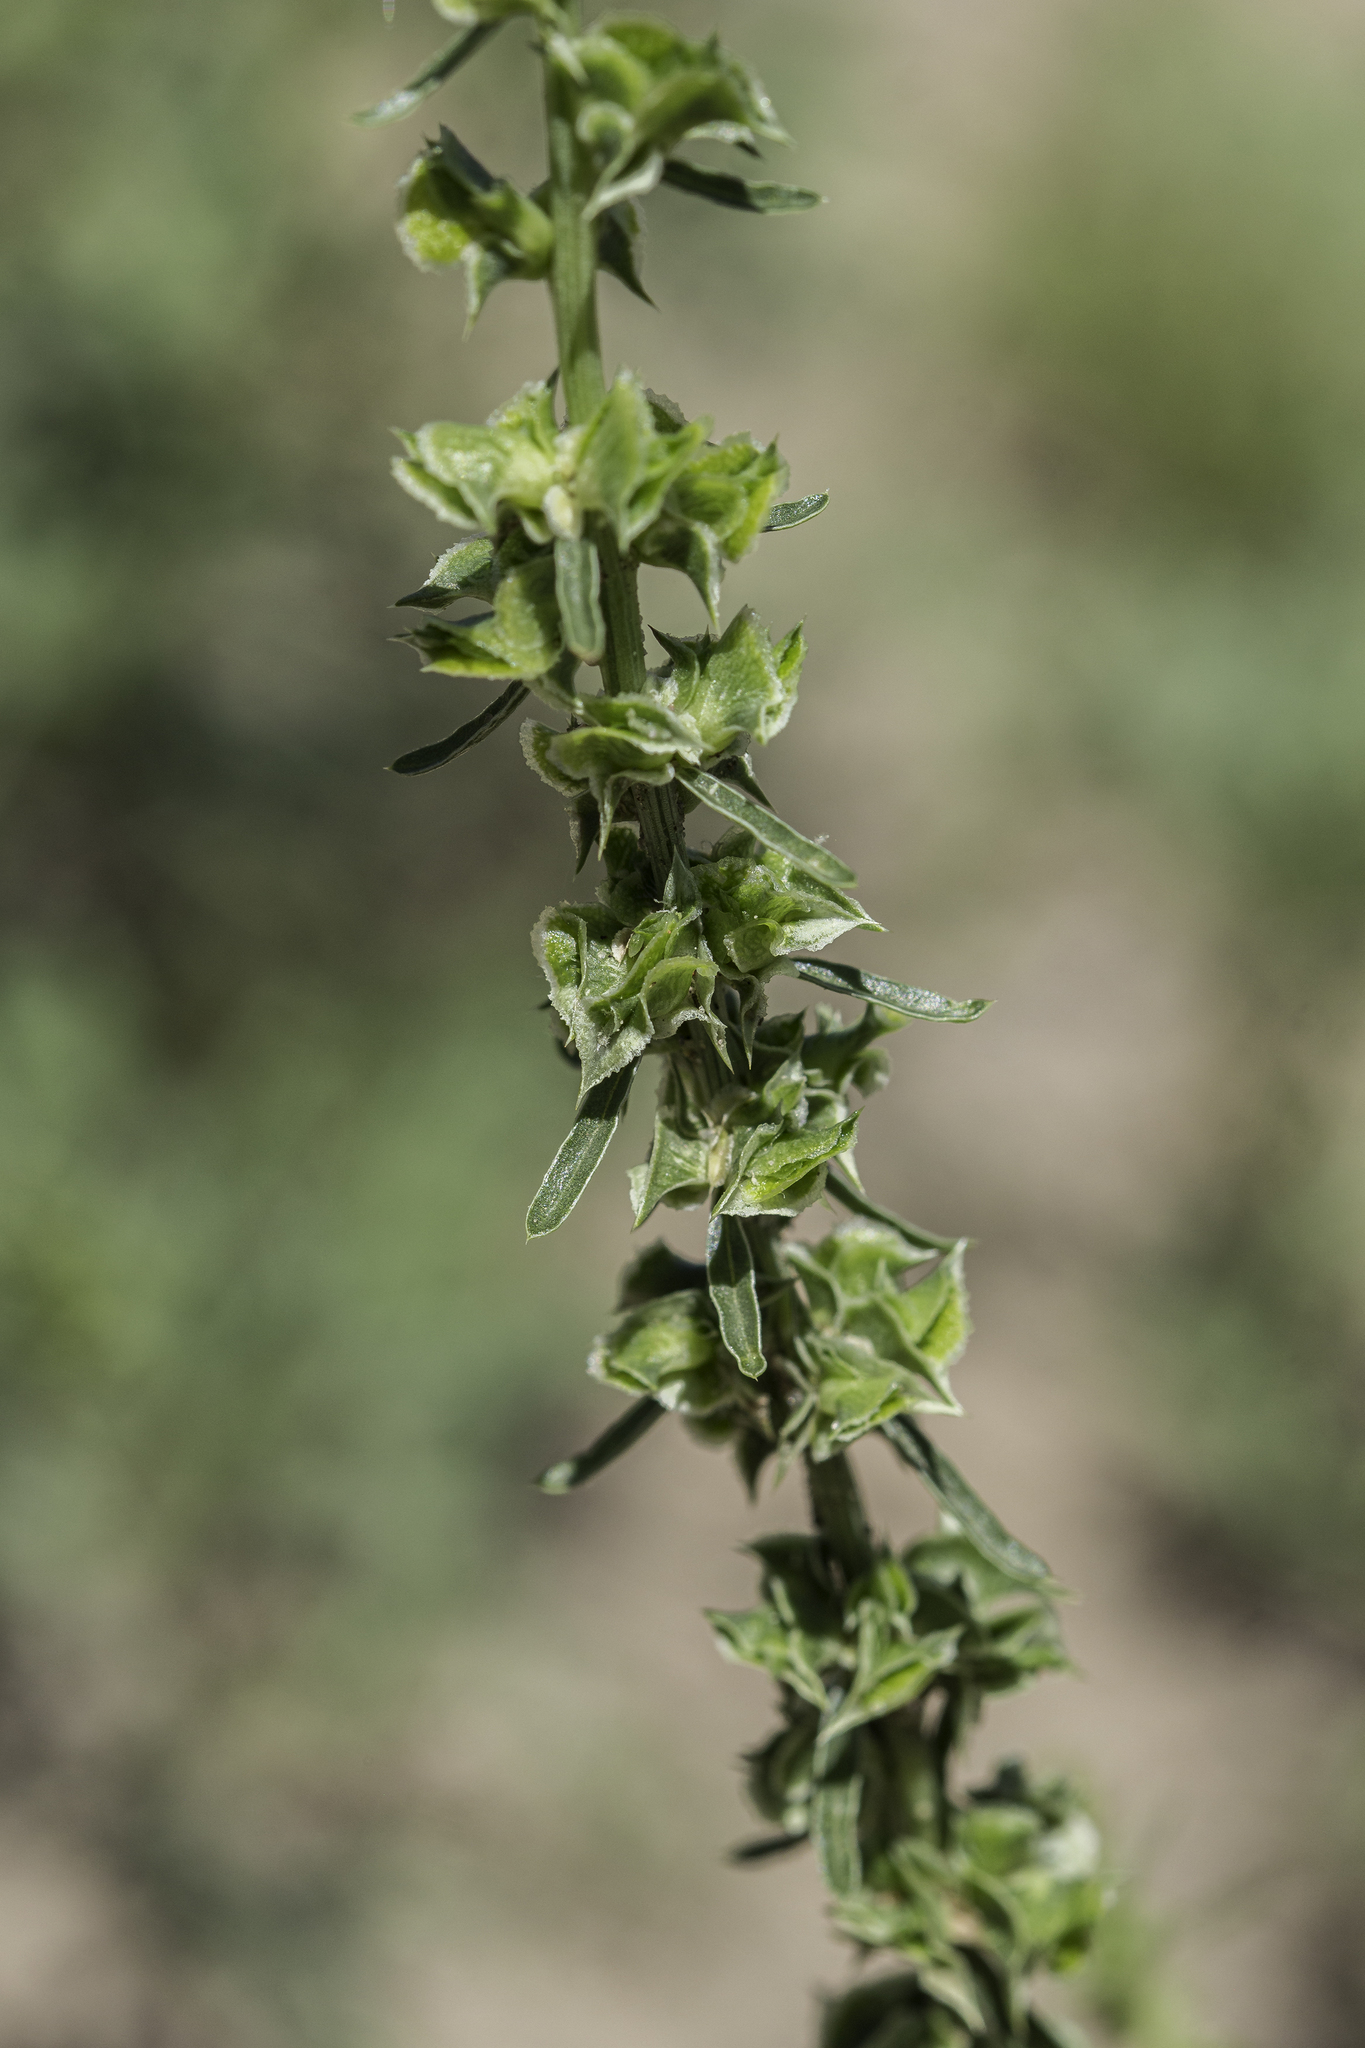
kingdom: Plantae
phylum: Tracheophyta
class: Magnoliopsida
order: Caryophyllales
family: Amaranthaceae
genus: Amaranthus
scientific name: Amaranthus acanthochiton
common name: Greenstripe
